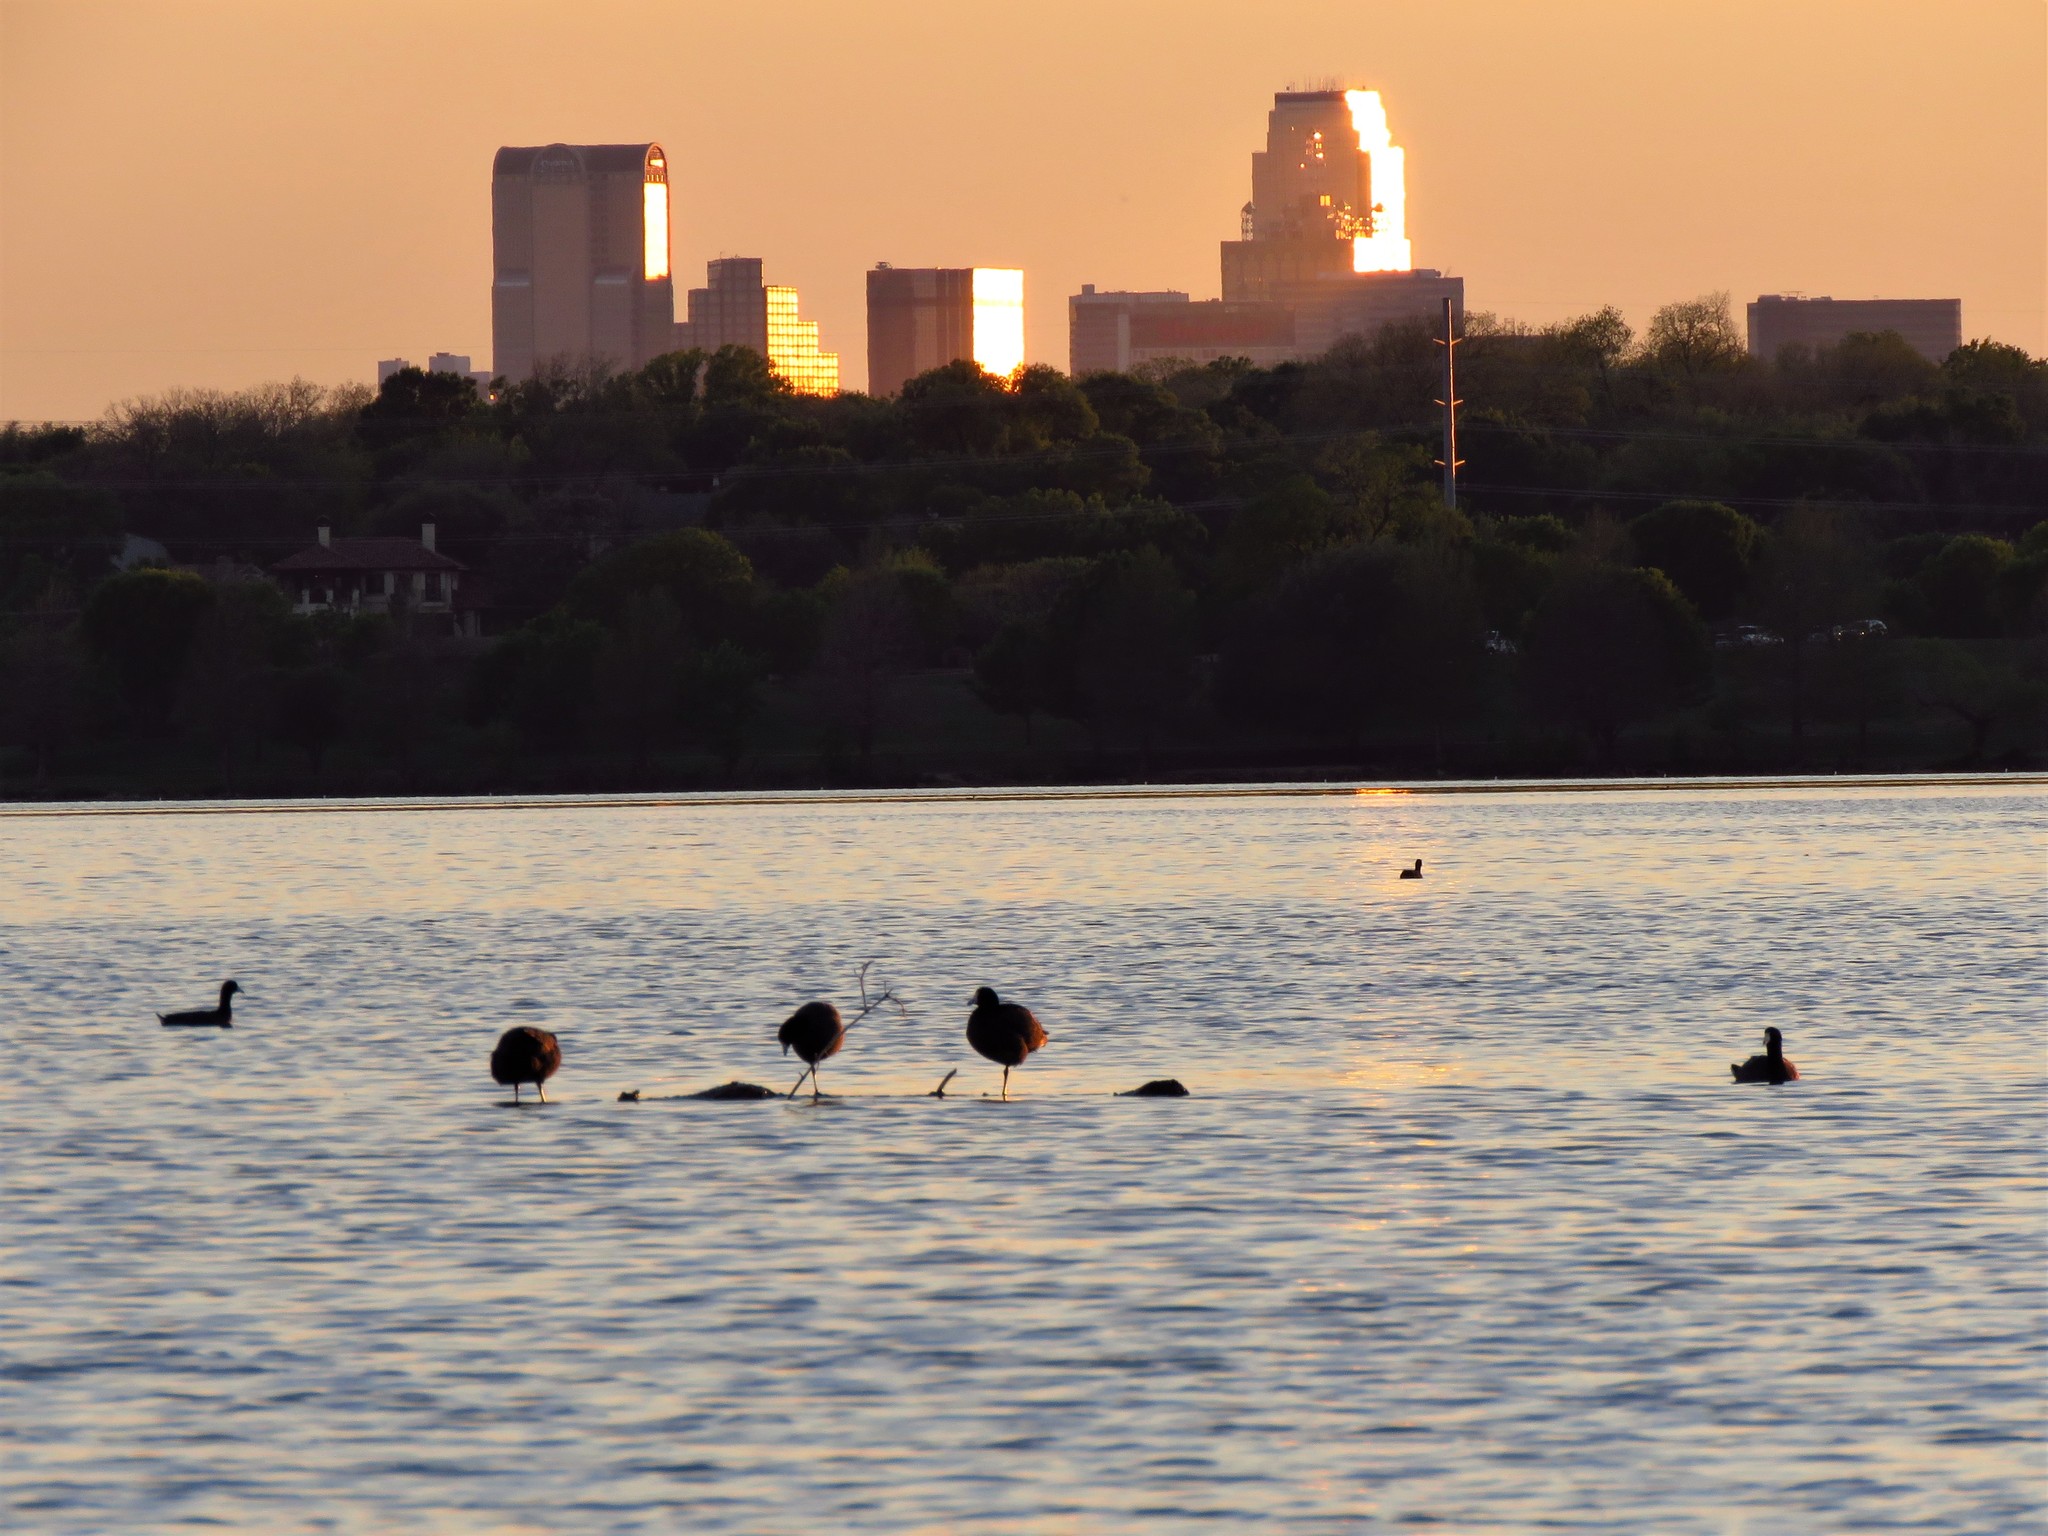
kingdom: Animalia
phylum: Chordata
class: Aves
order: Gruiformes
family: Rallidae
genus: Fulica
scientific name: Fulica americana
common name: American coot
